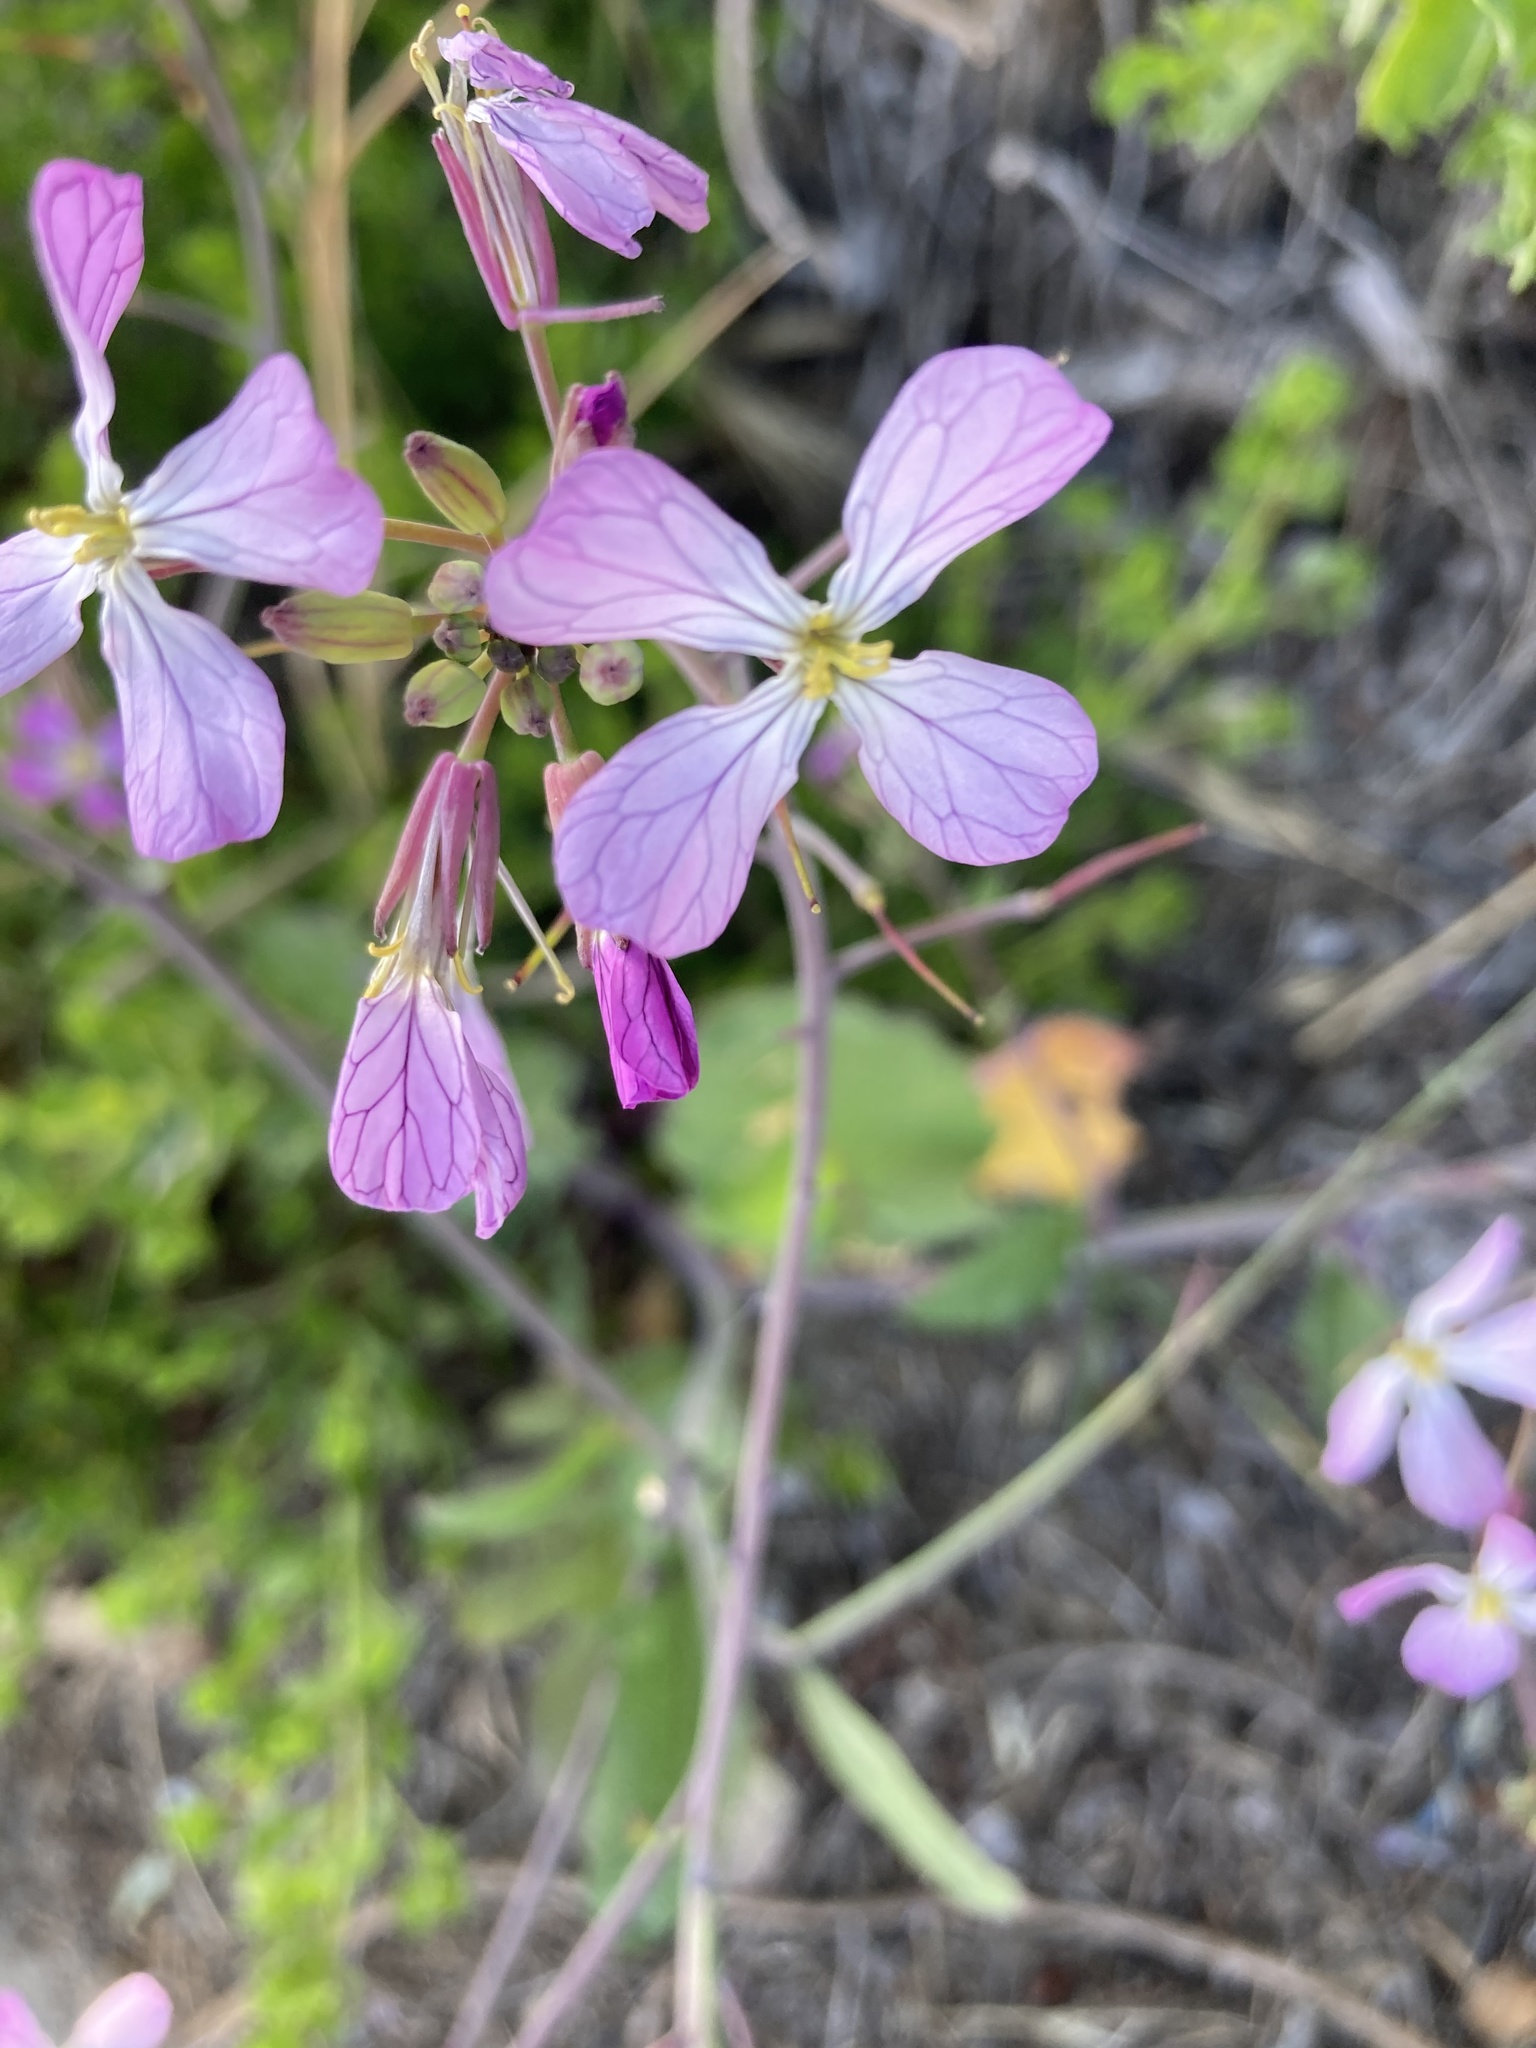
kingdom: Plantae
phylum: Tracheophyta
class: Magnoliopsida
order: Brassicales
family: Brassicaceae
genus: Raphanus
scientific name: Raphanus sativus
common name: Cultivated radish
